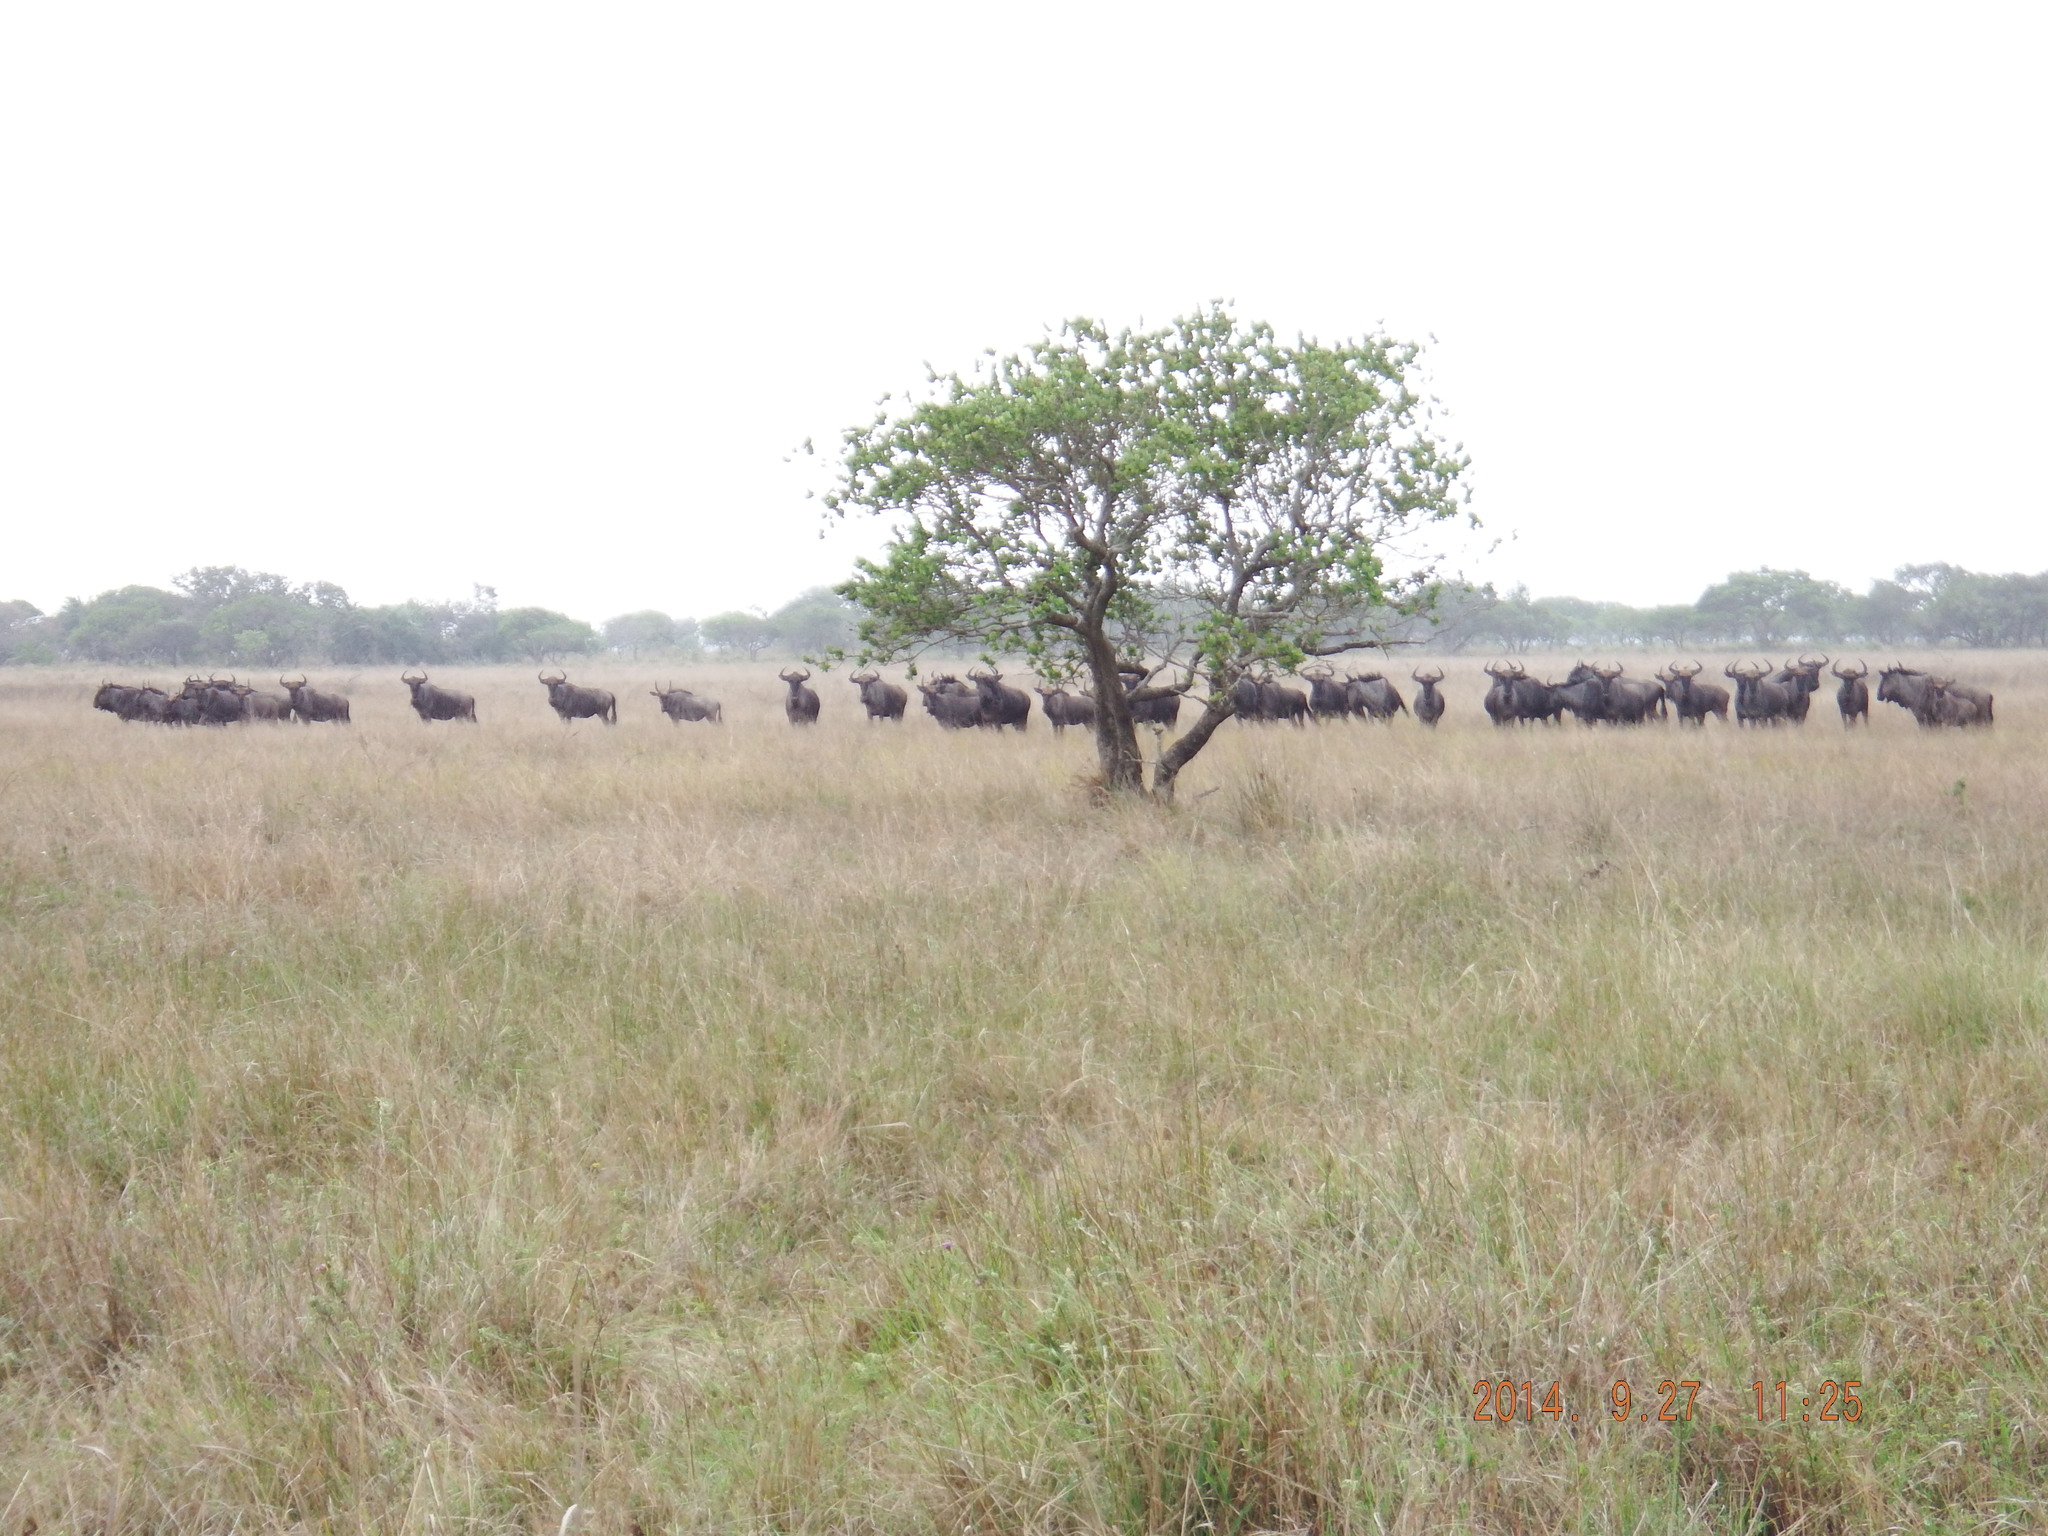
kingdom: Animalia
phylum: Chordata
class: Mammalia
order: Artiodactyla
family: Bovidae
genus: Connochaetes
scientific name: Connochaetes taurinus
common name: Blue wildebeest
